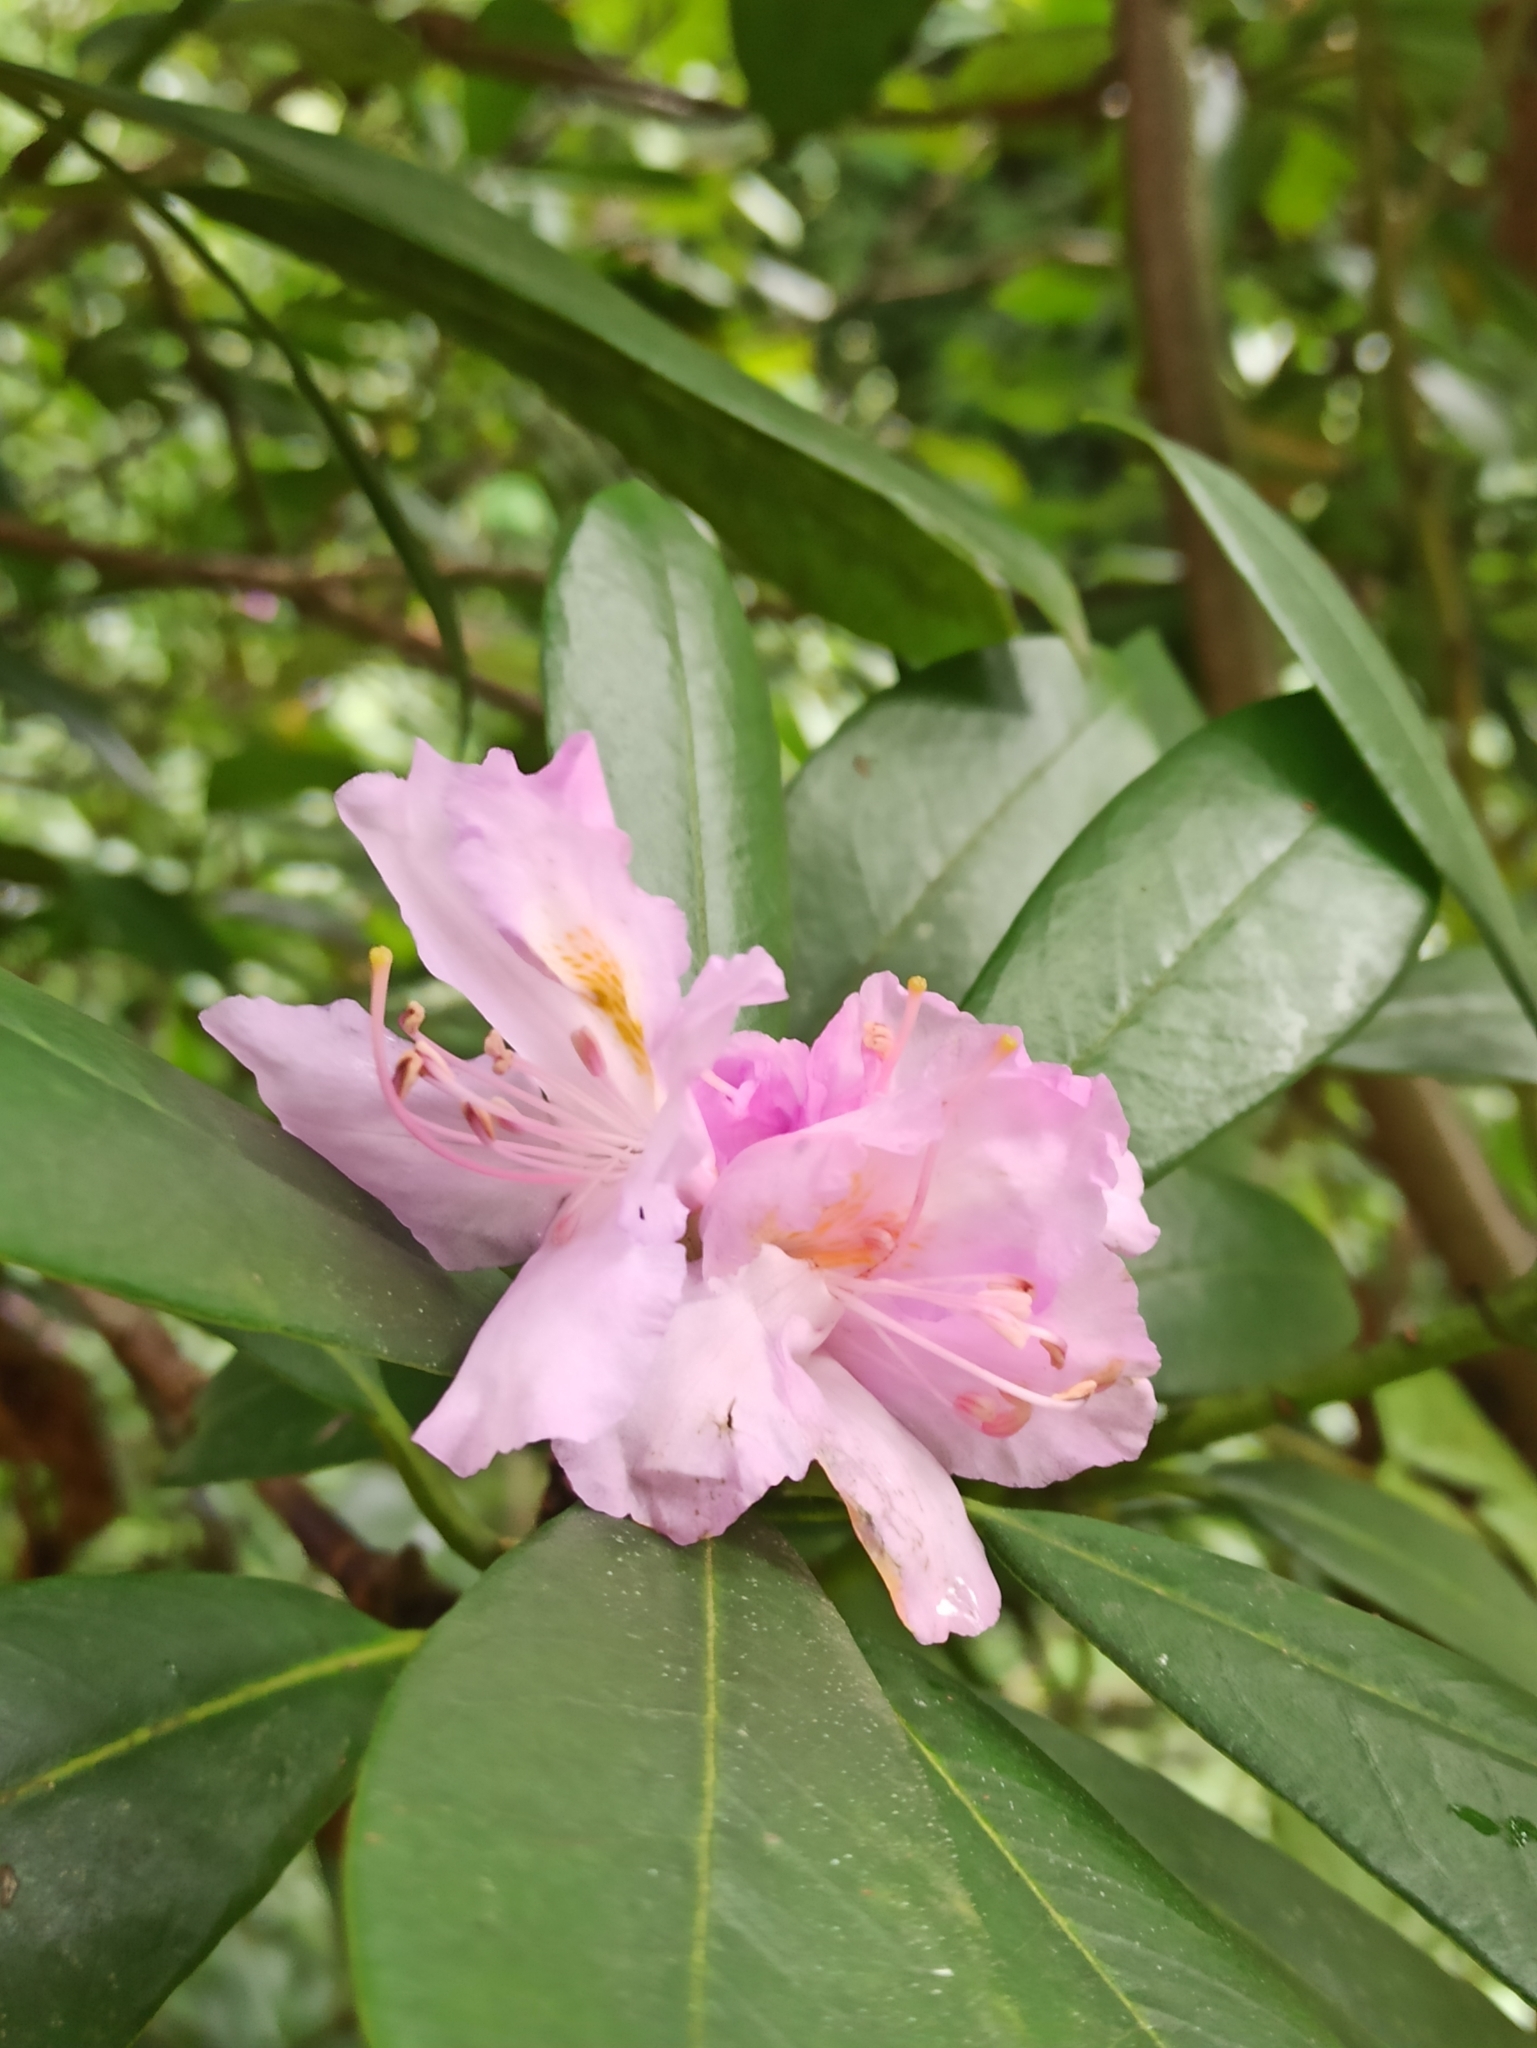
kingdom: Plantae
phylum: Tracheophyta
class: Magnoliopsida
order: Ericales
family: Ericaceae
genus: Rhododendron
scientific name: Rhododendron ponticum
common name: Rhododendron
